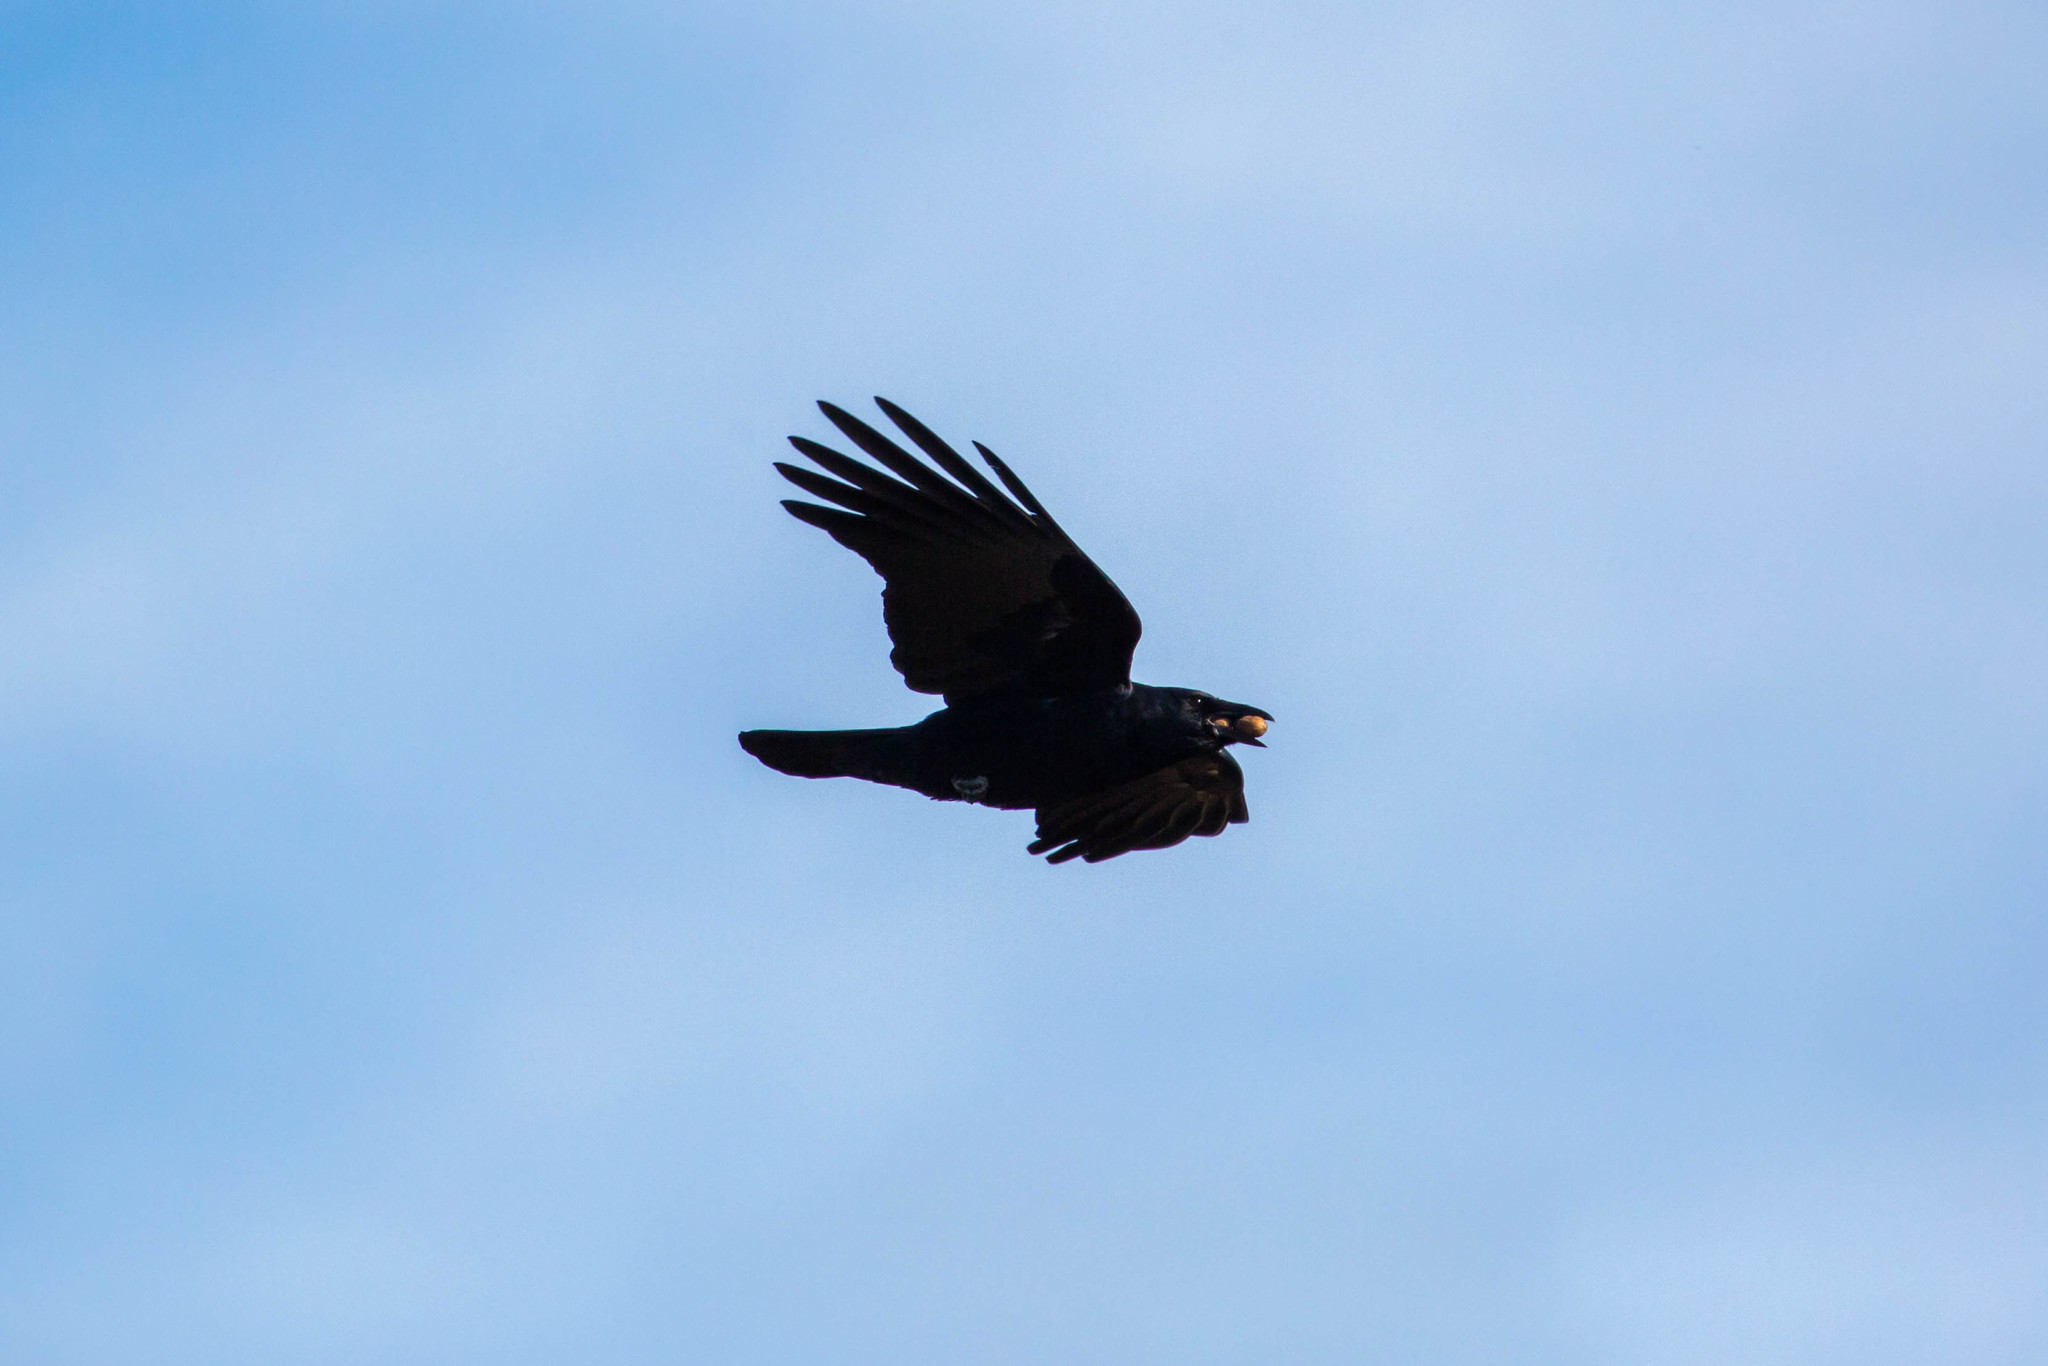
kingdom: Animalia
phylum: Chordata
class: Aves
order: Passeriformes
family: Corvidae
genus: Corvus
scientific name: Corvus brachyrhynchos
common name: American crow
